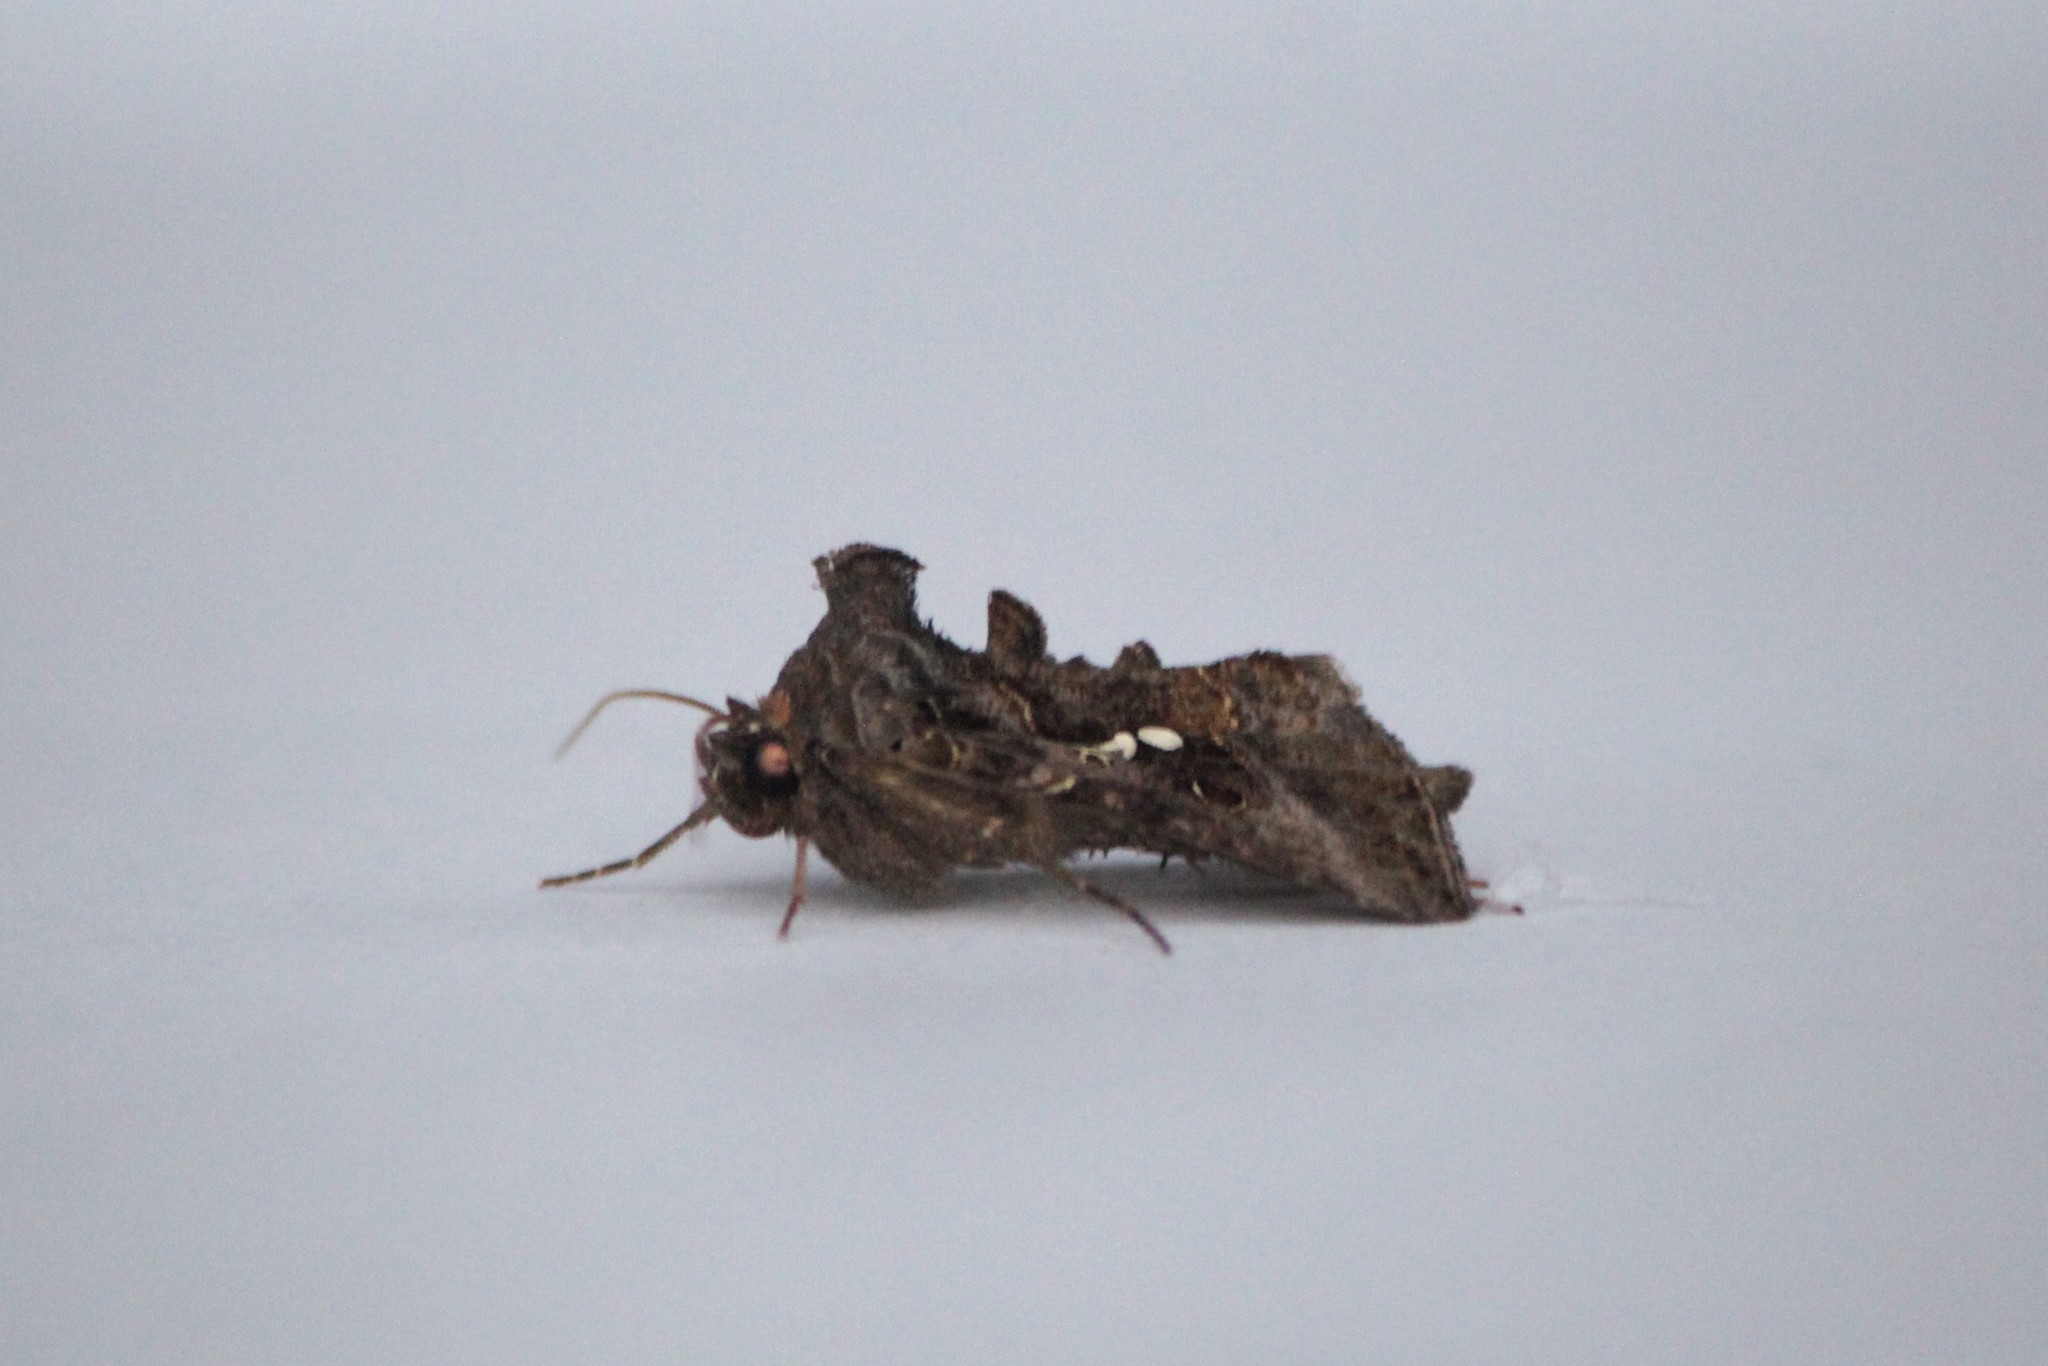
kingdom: Animalia
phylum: Arthropoda
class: Insecta
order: Lepidoptera
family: Noctuidae
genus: Autographa
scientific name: Autographa precationis
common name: Common looper moth
